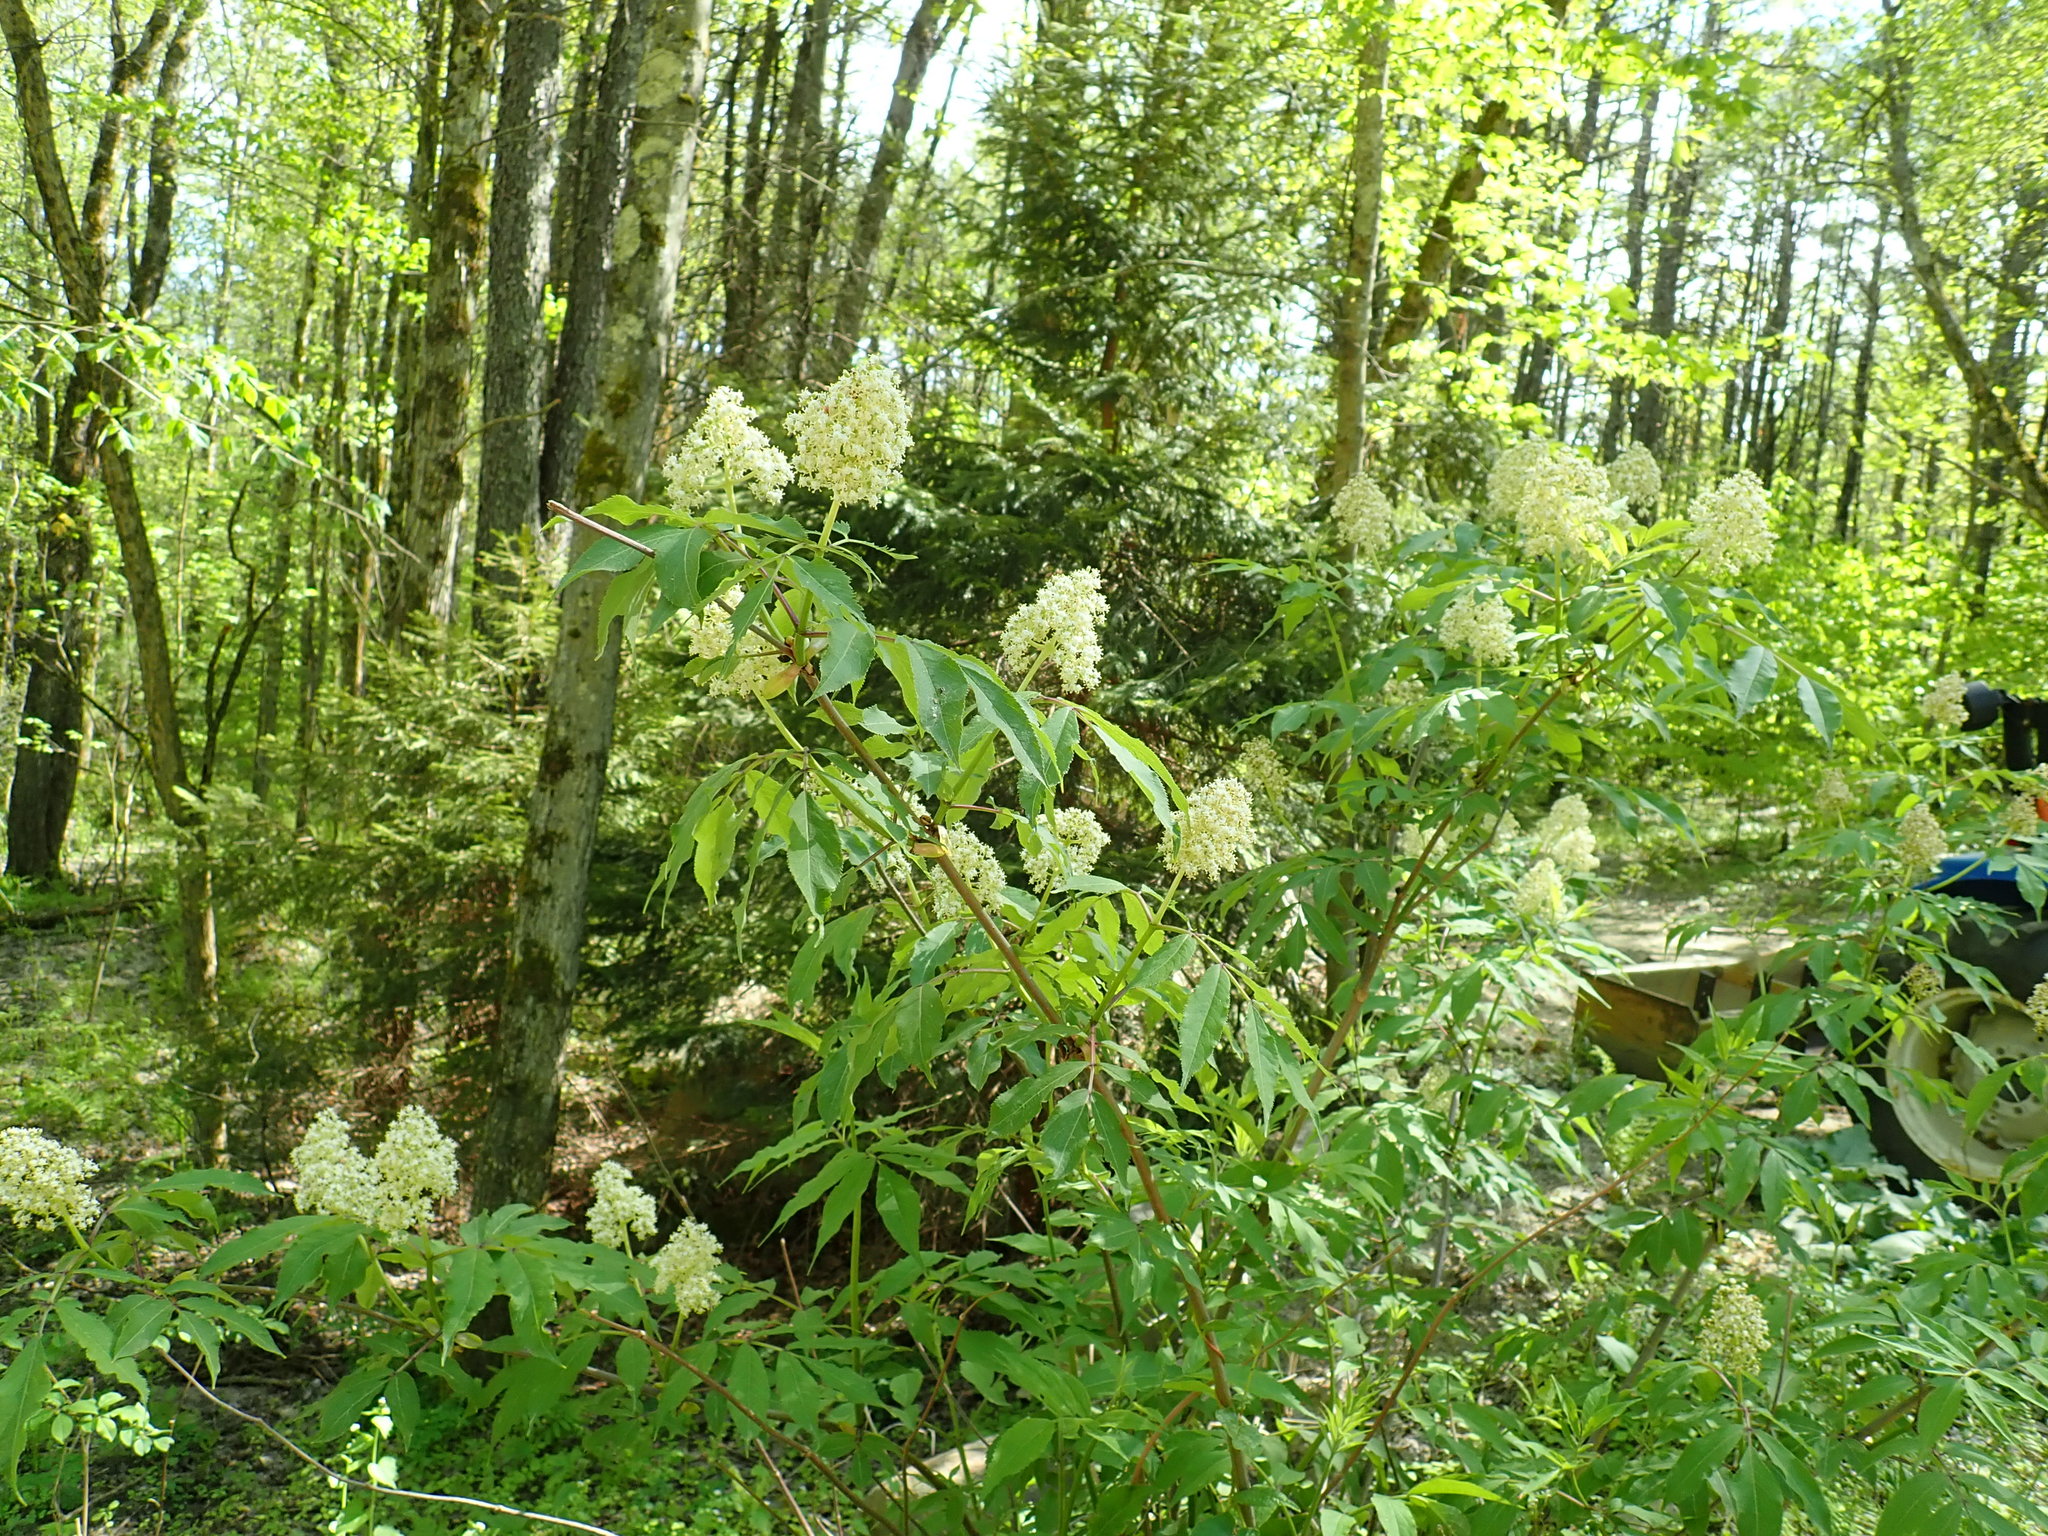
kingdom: Plantae
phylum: Tracheophyta
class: Magnoliopsida
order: Dipsacales
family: Viburnaceae
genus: Sambucus
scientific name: Sambucus racemosa
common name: Red-berried elder
